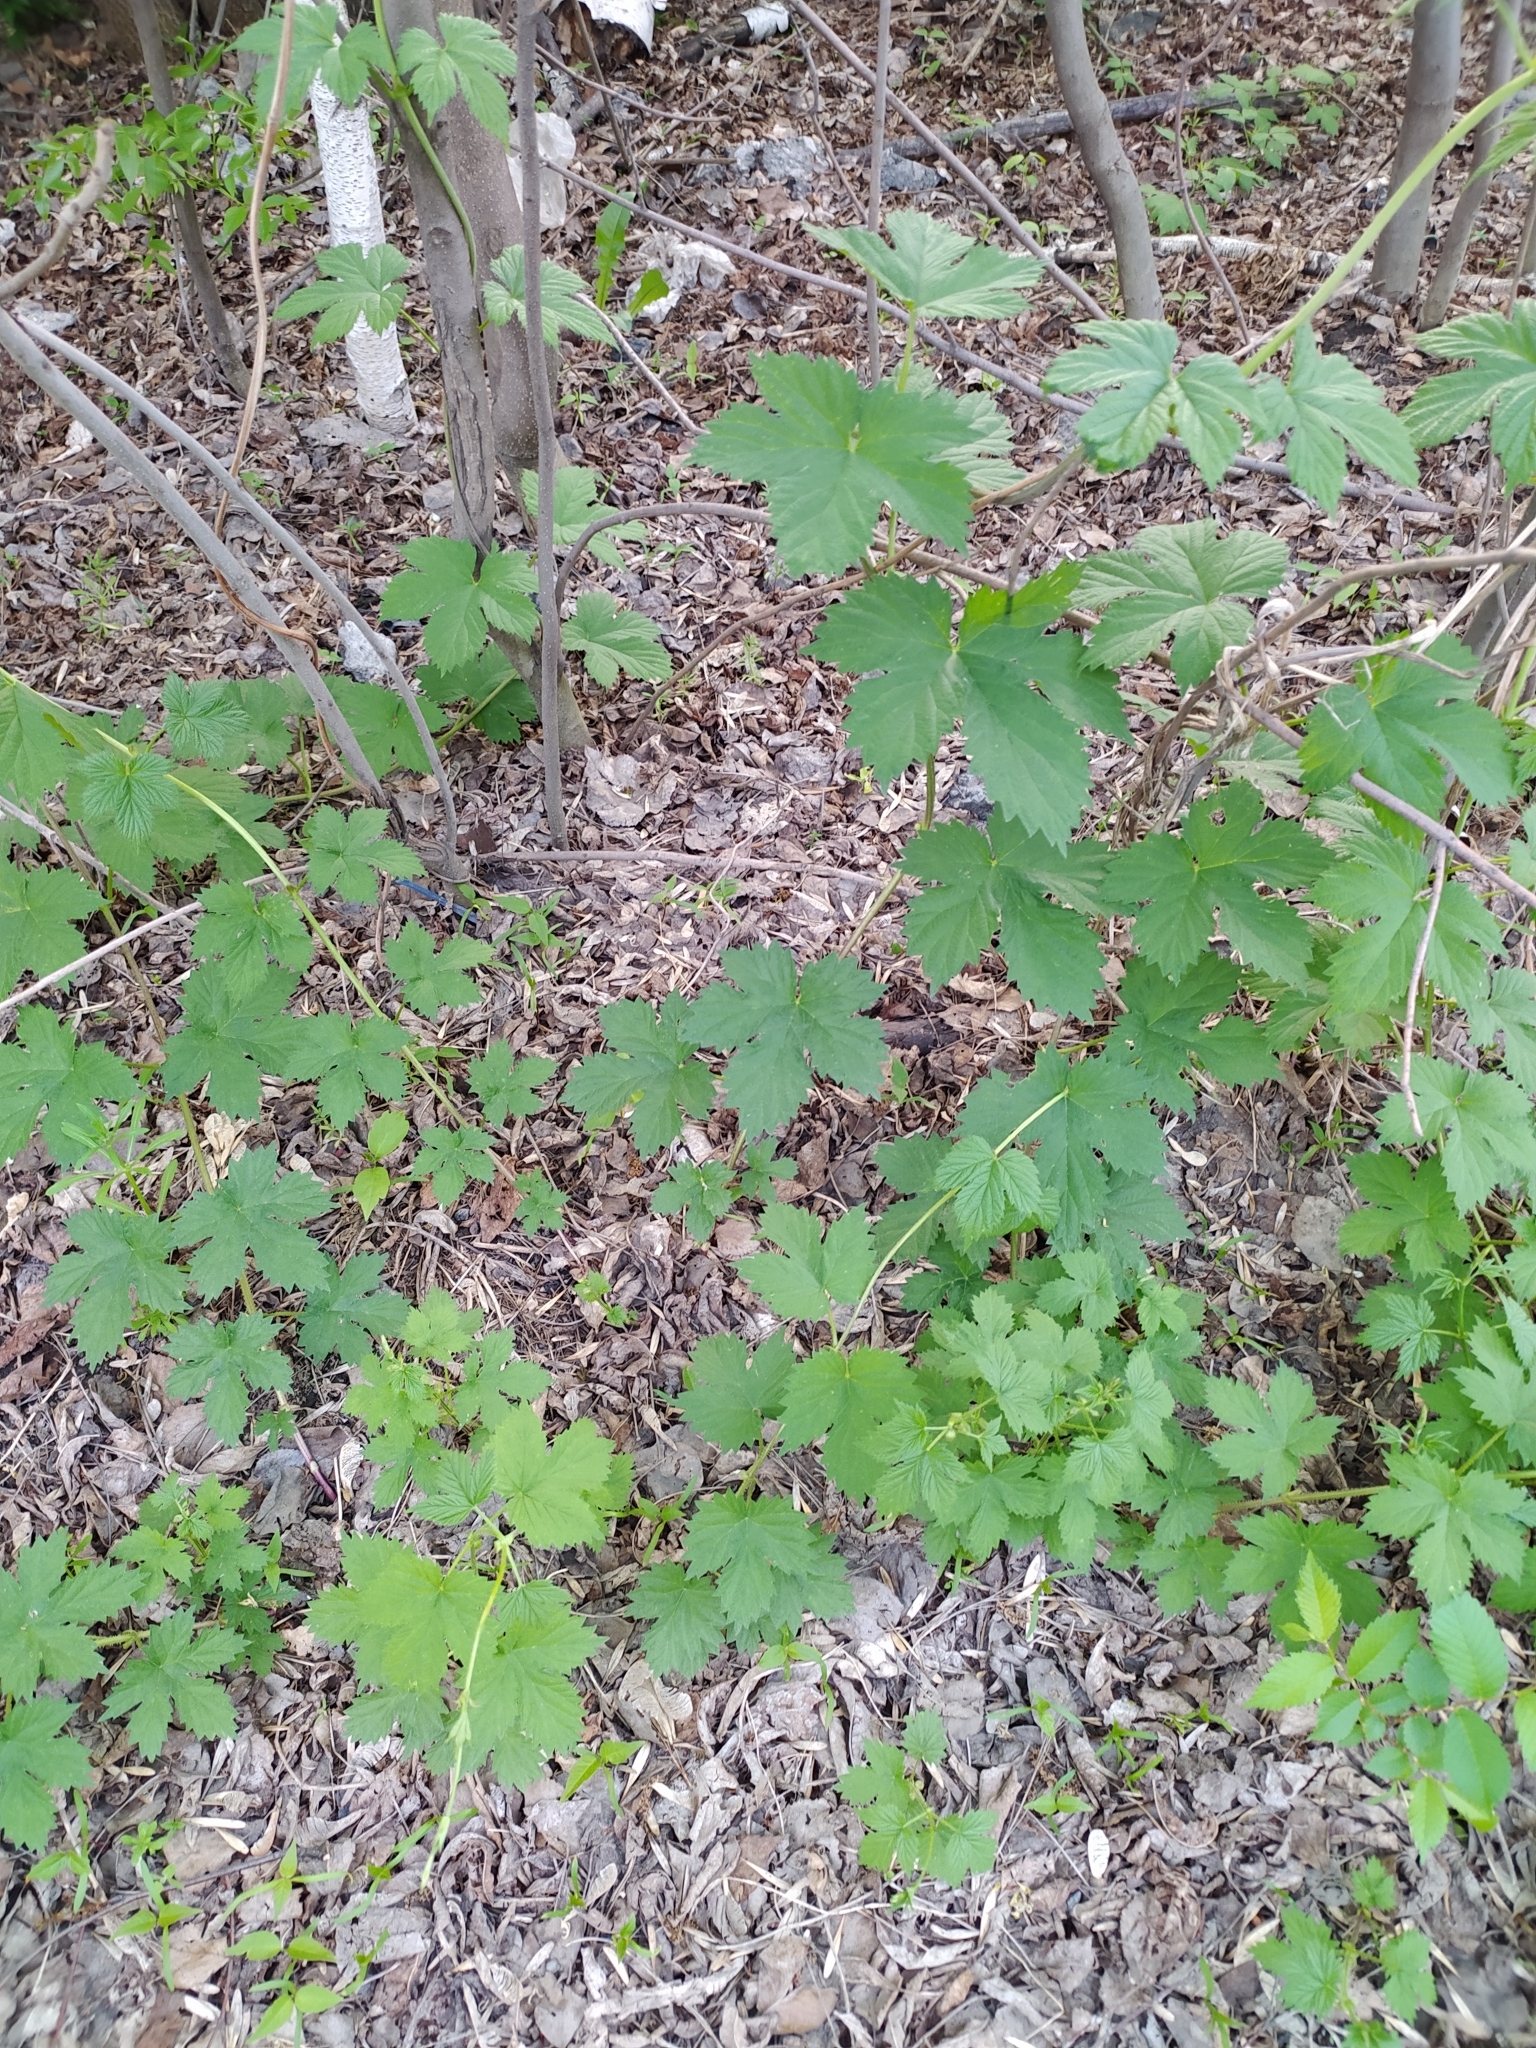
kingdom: Plantae
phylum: Tracheophyta
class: Magnoliopsida
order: Rosales
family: Cannabaceae
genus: Humulus
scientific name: Humulus lupulus
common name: Hop
